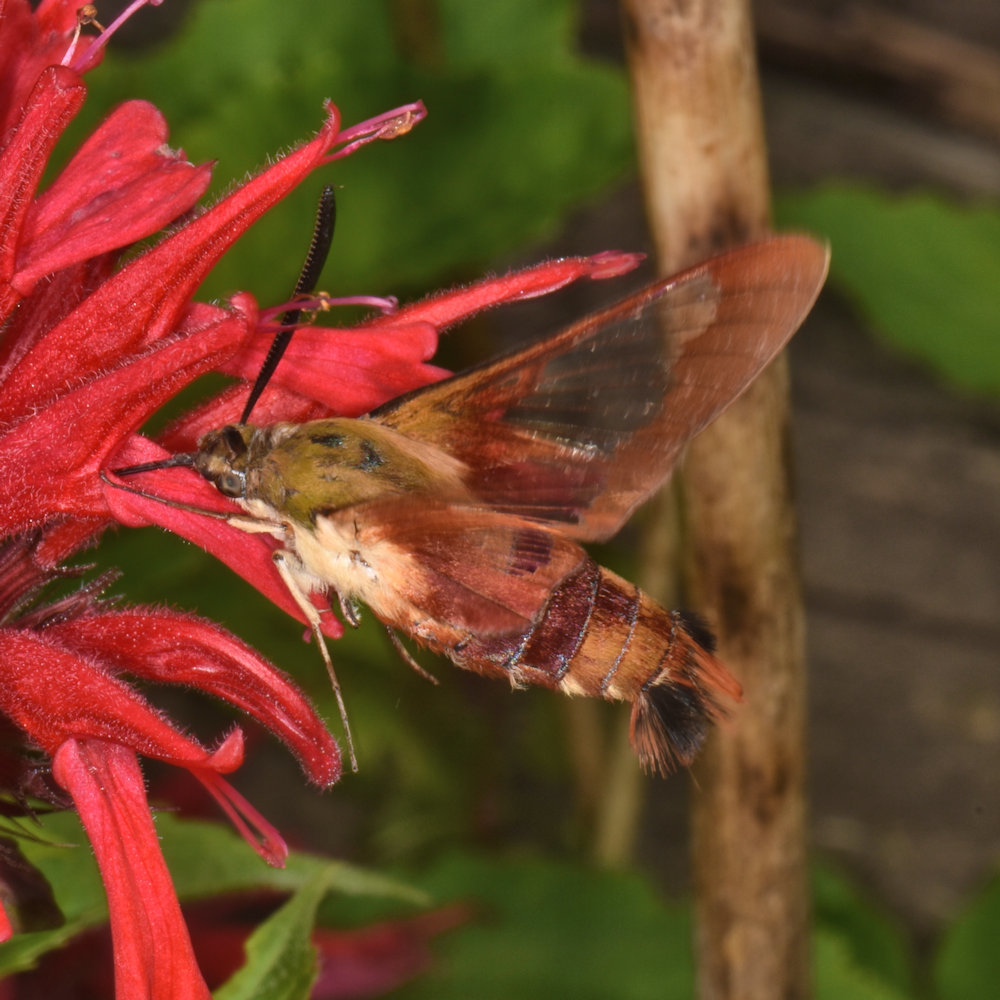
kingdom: Animalia
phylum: Arthropoda
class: Insecta
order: Lepidoptera
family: Sphingidae
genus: Hemaris
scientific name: Hemaris thysbe
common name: Common clear-wing
